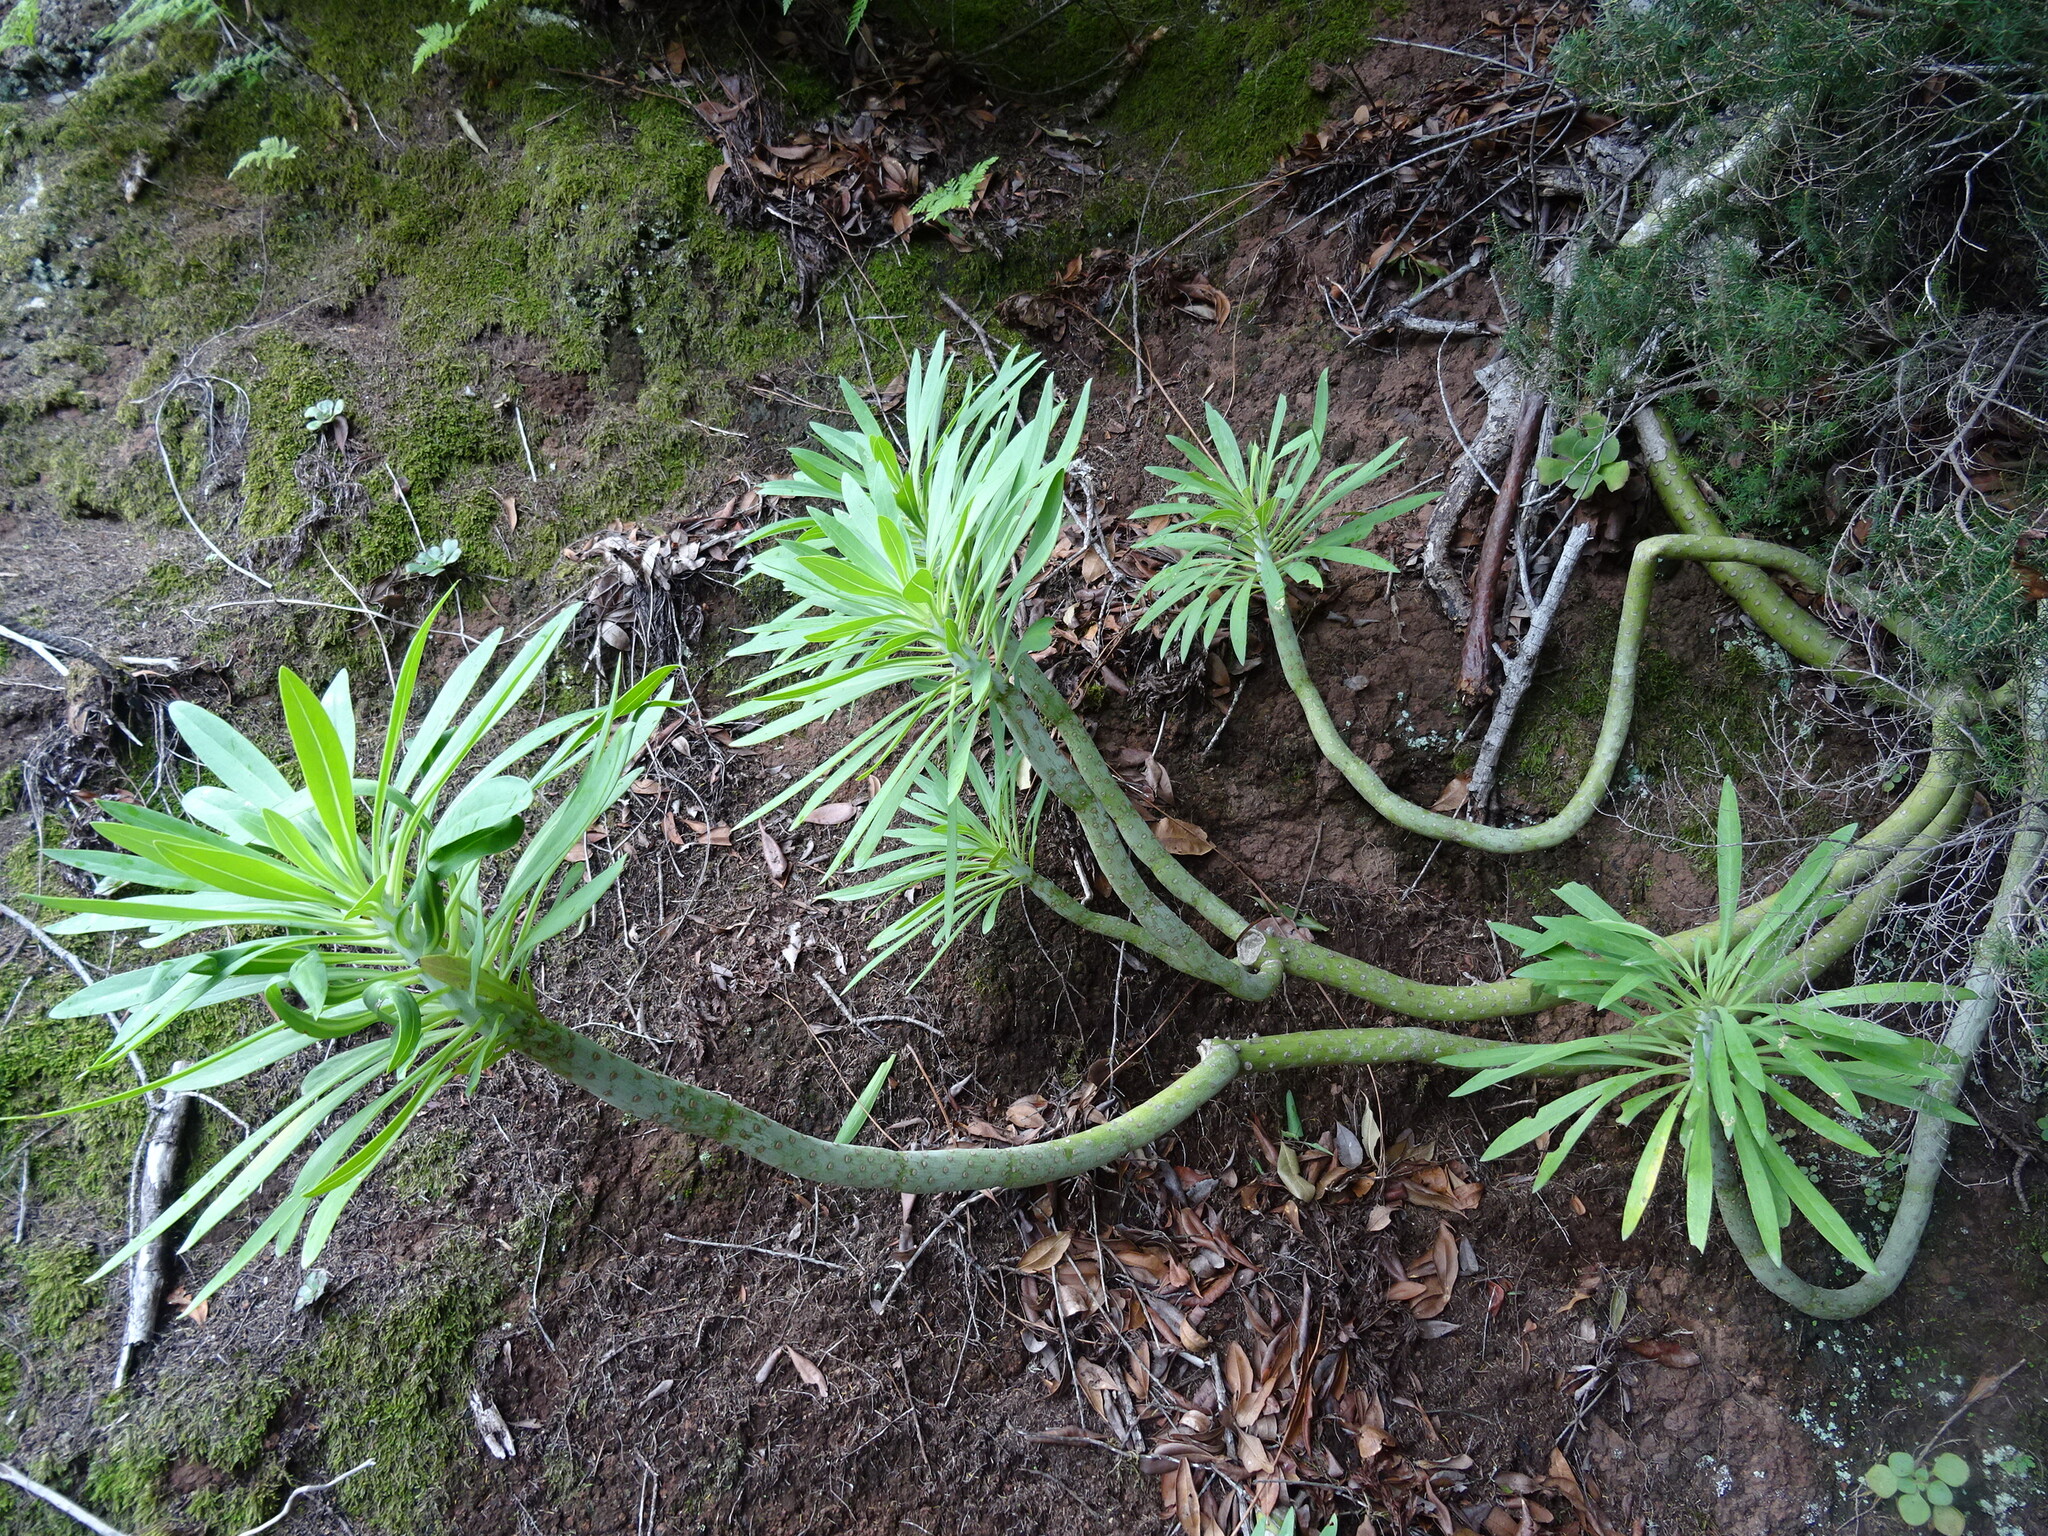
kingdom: Plantae
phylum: Tracheophyta
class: Magnoliopsida
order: Asterales
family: Asteraceae
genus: Kleinia
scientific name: Kleinia neriifolia
